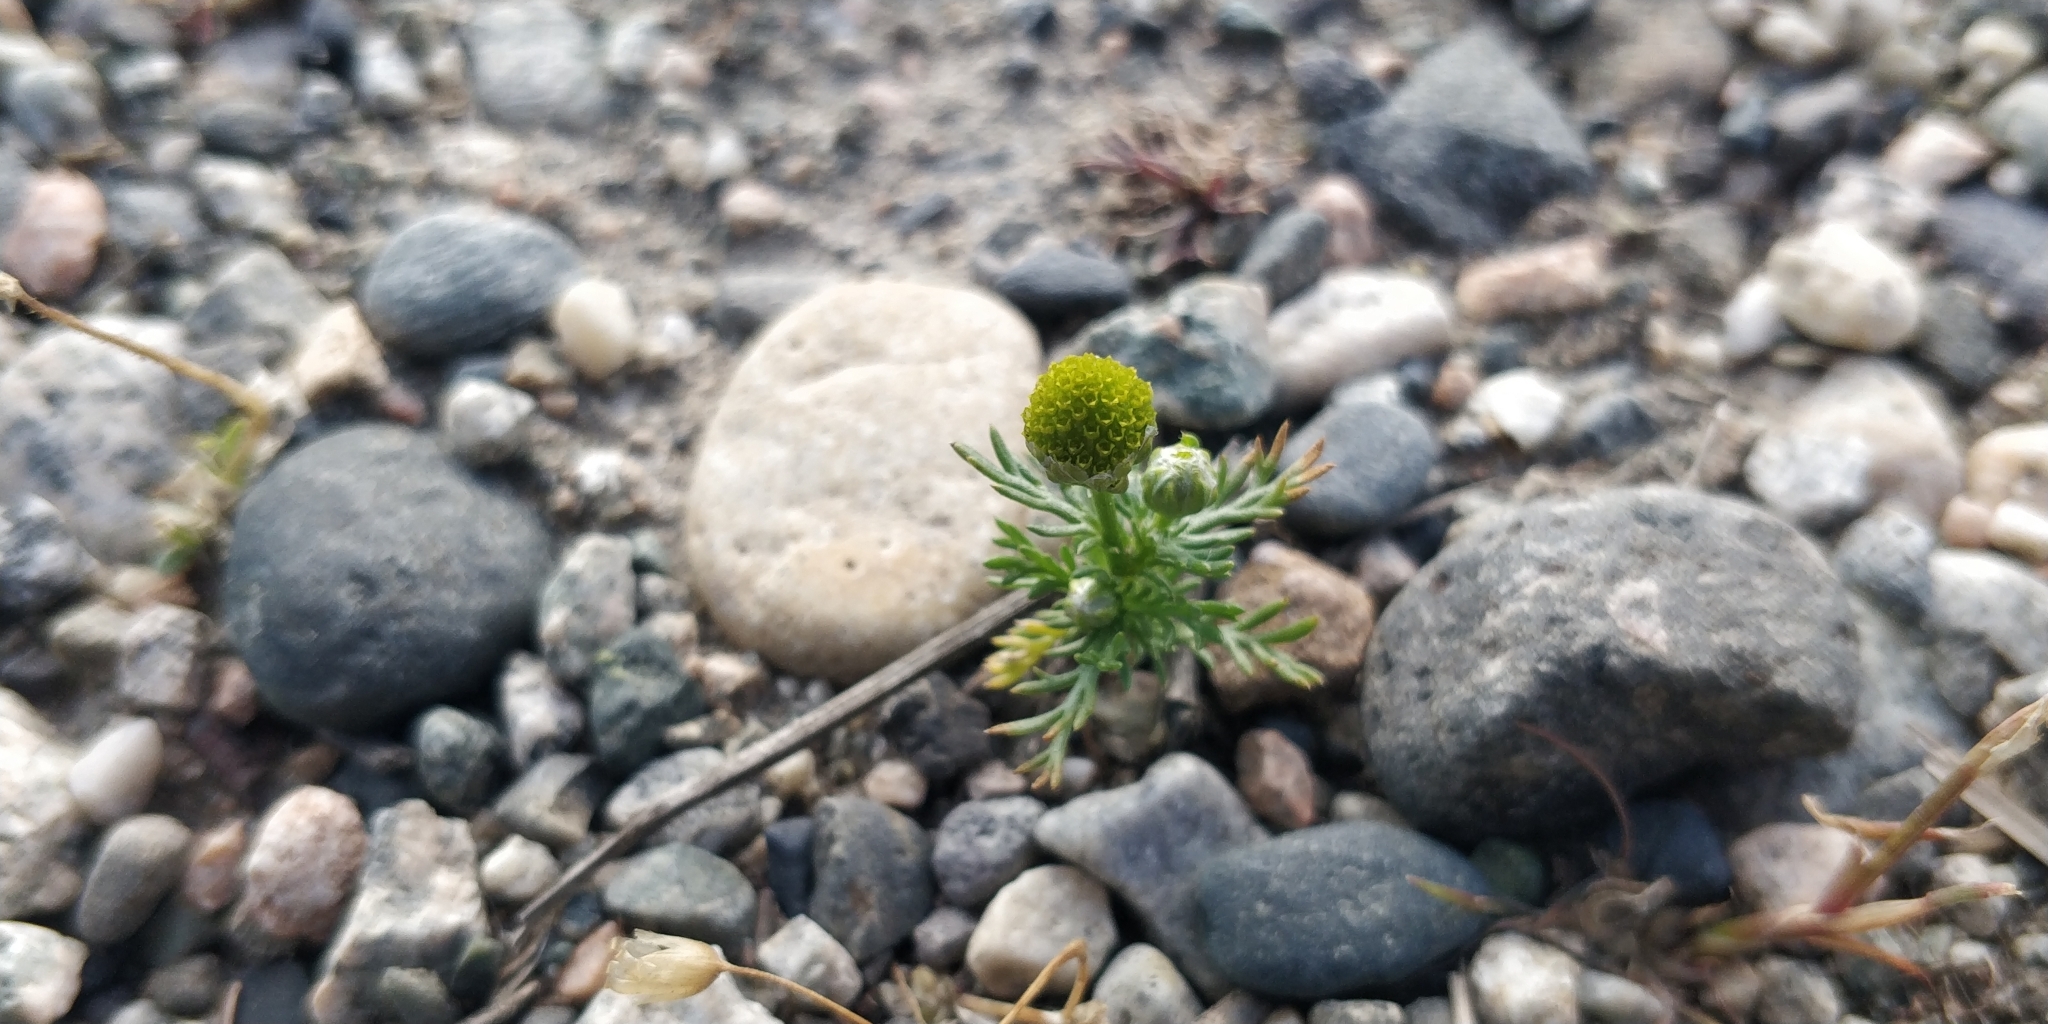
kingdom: Plantae
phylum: Tracheophyta
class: Magnoliopsida
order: Asterales
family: Asteraceae
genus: Matricaria
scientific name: Matricaria discoidea
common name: Disc mayweed
